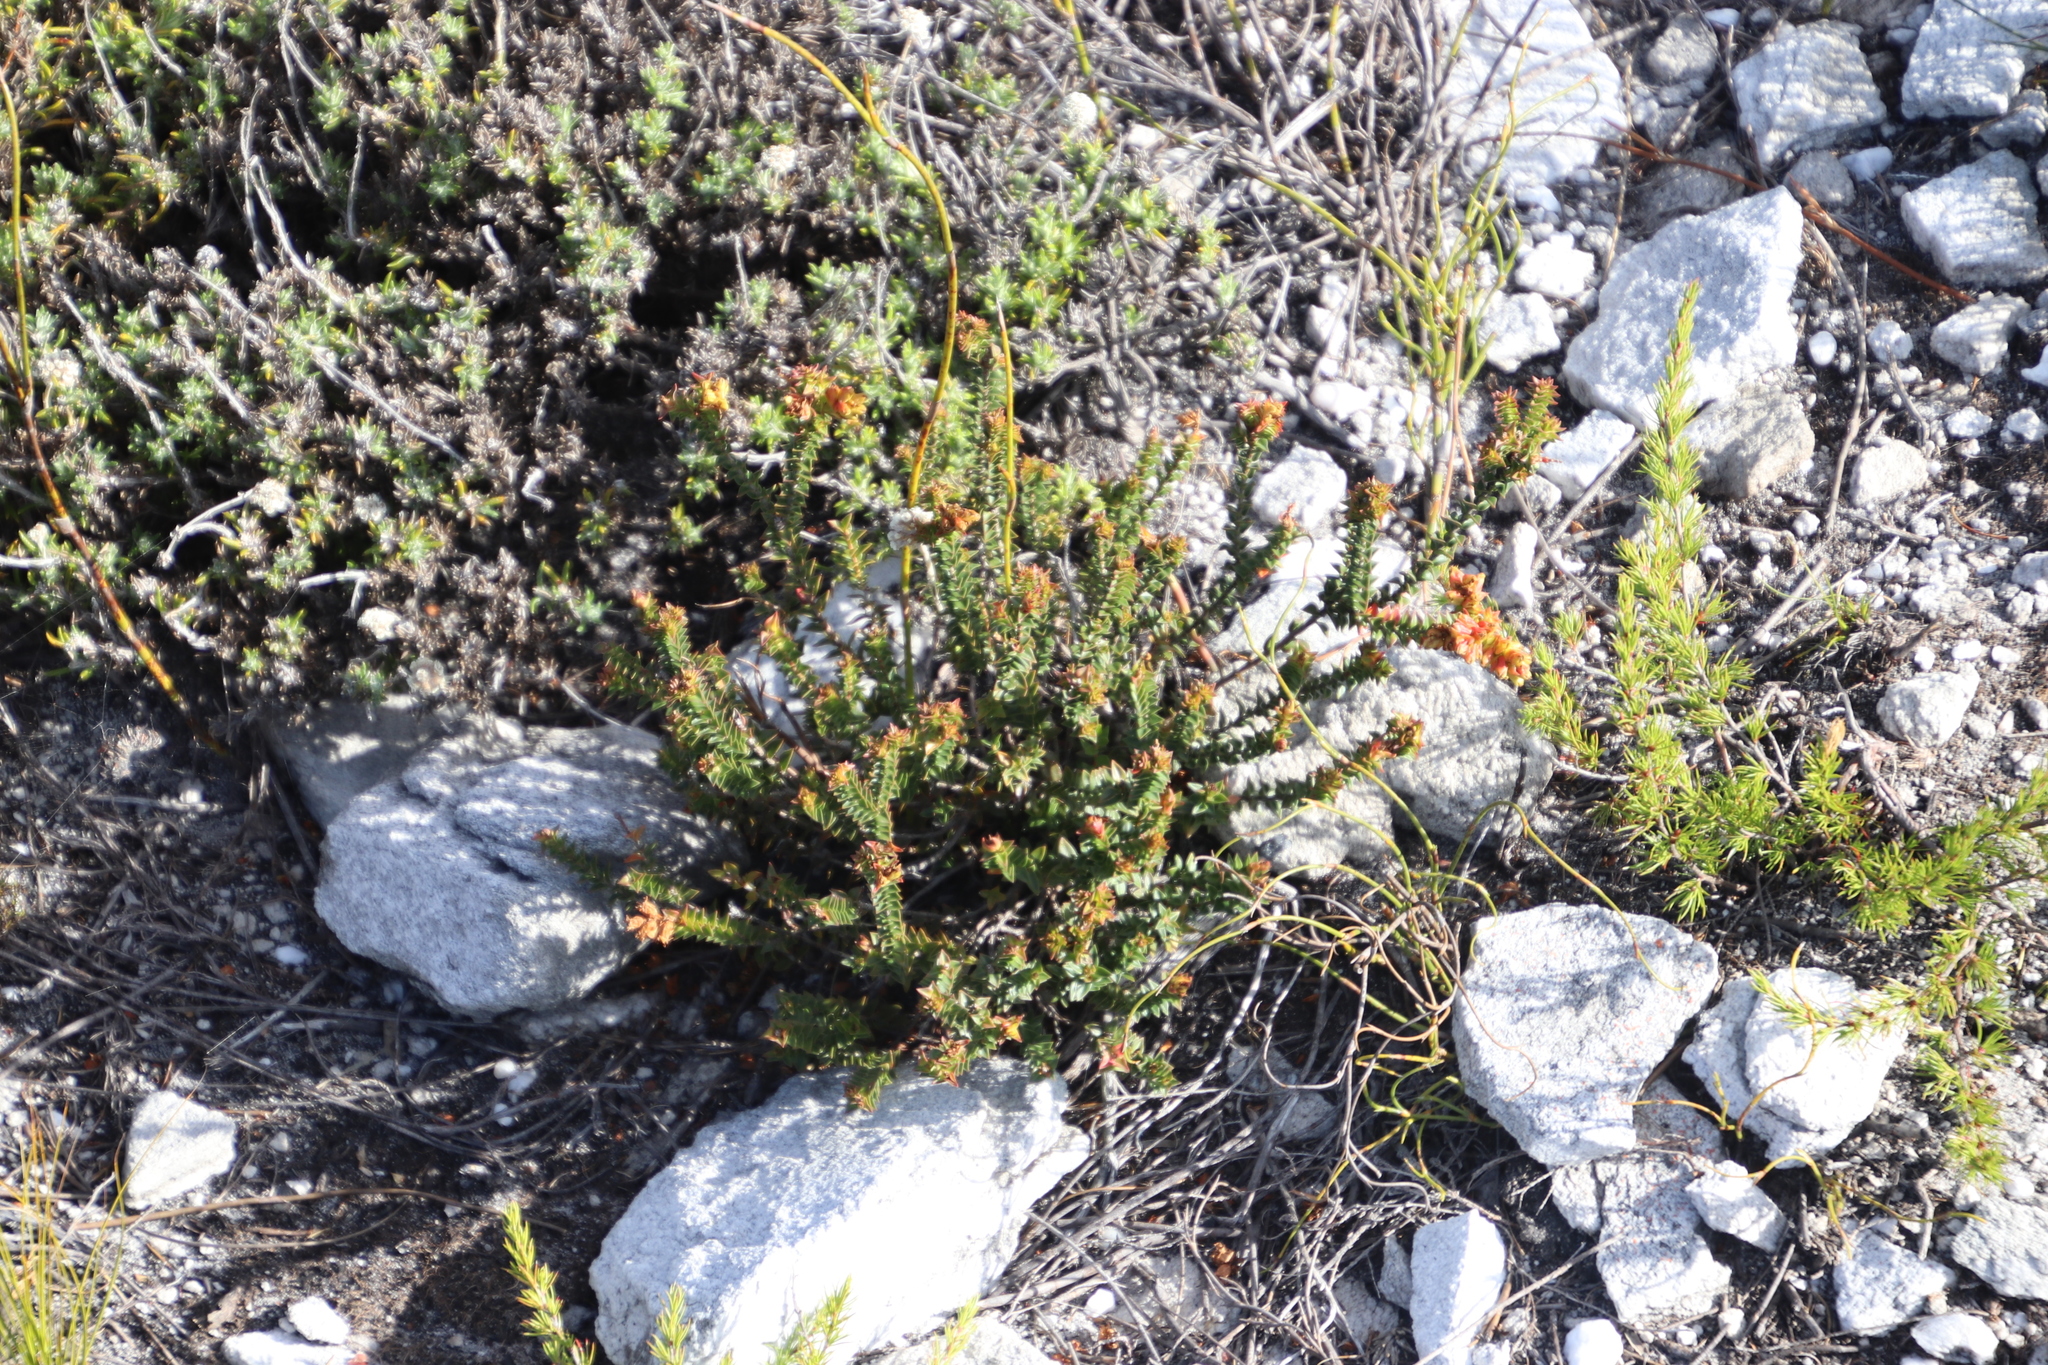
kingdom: Plantae
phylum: Tracheophyta
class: Magnoliopsida
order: Myrtales
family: Penaeaceae
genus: Penaea
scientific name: Penaea mucronata
